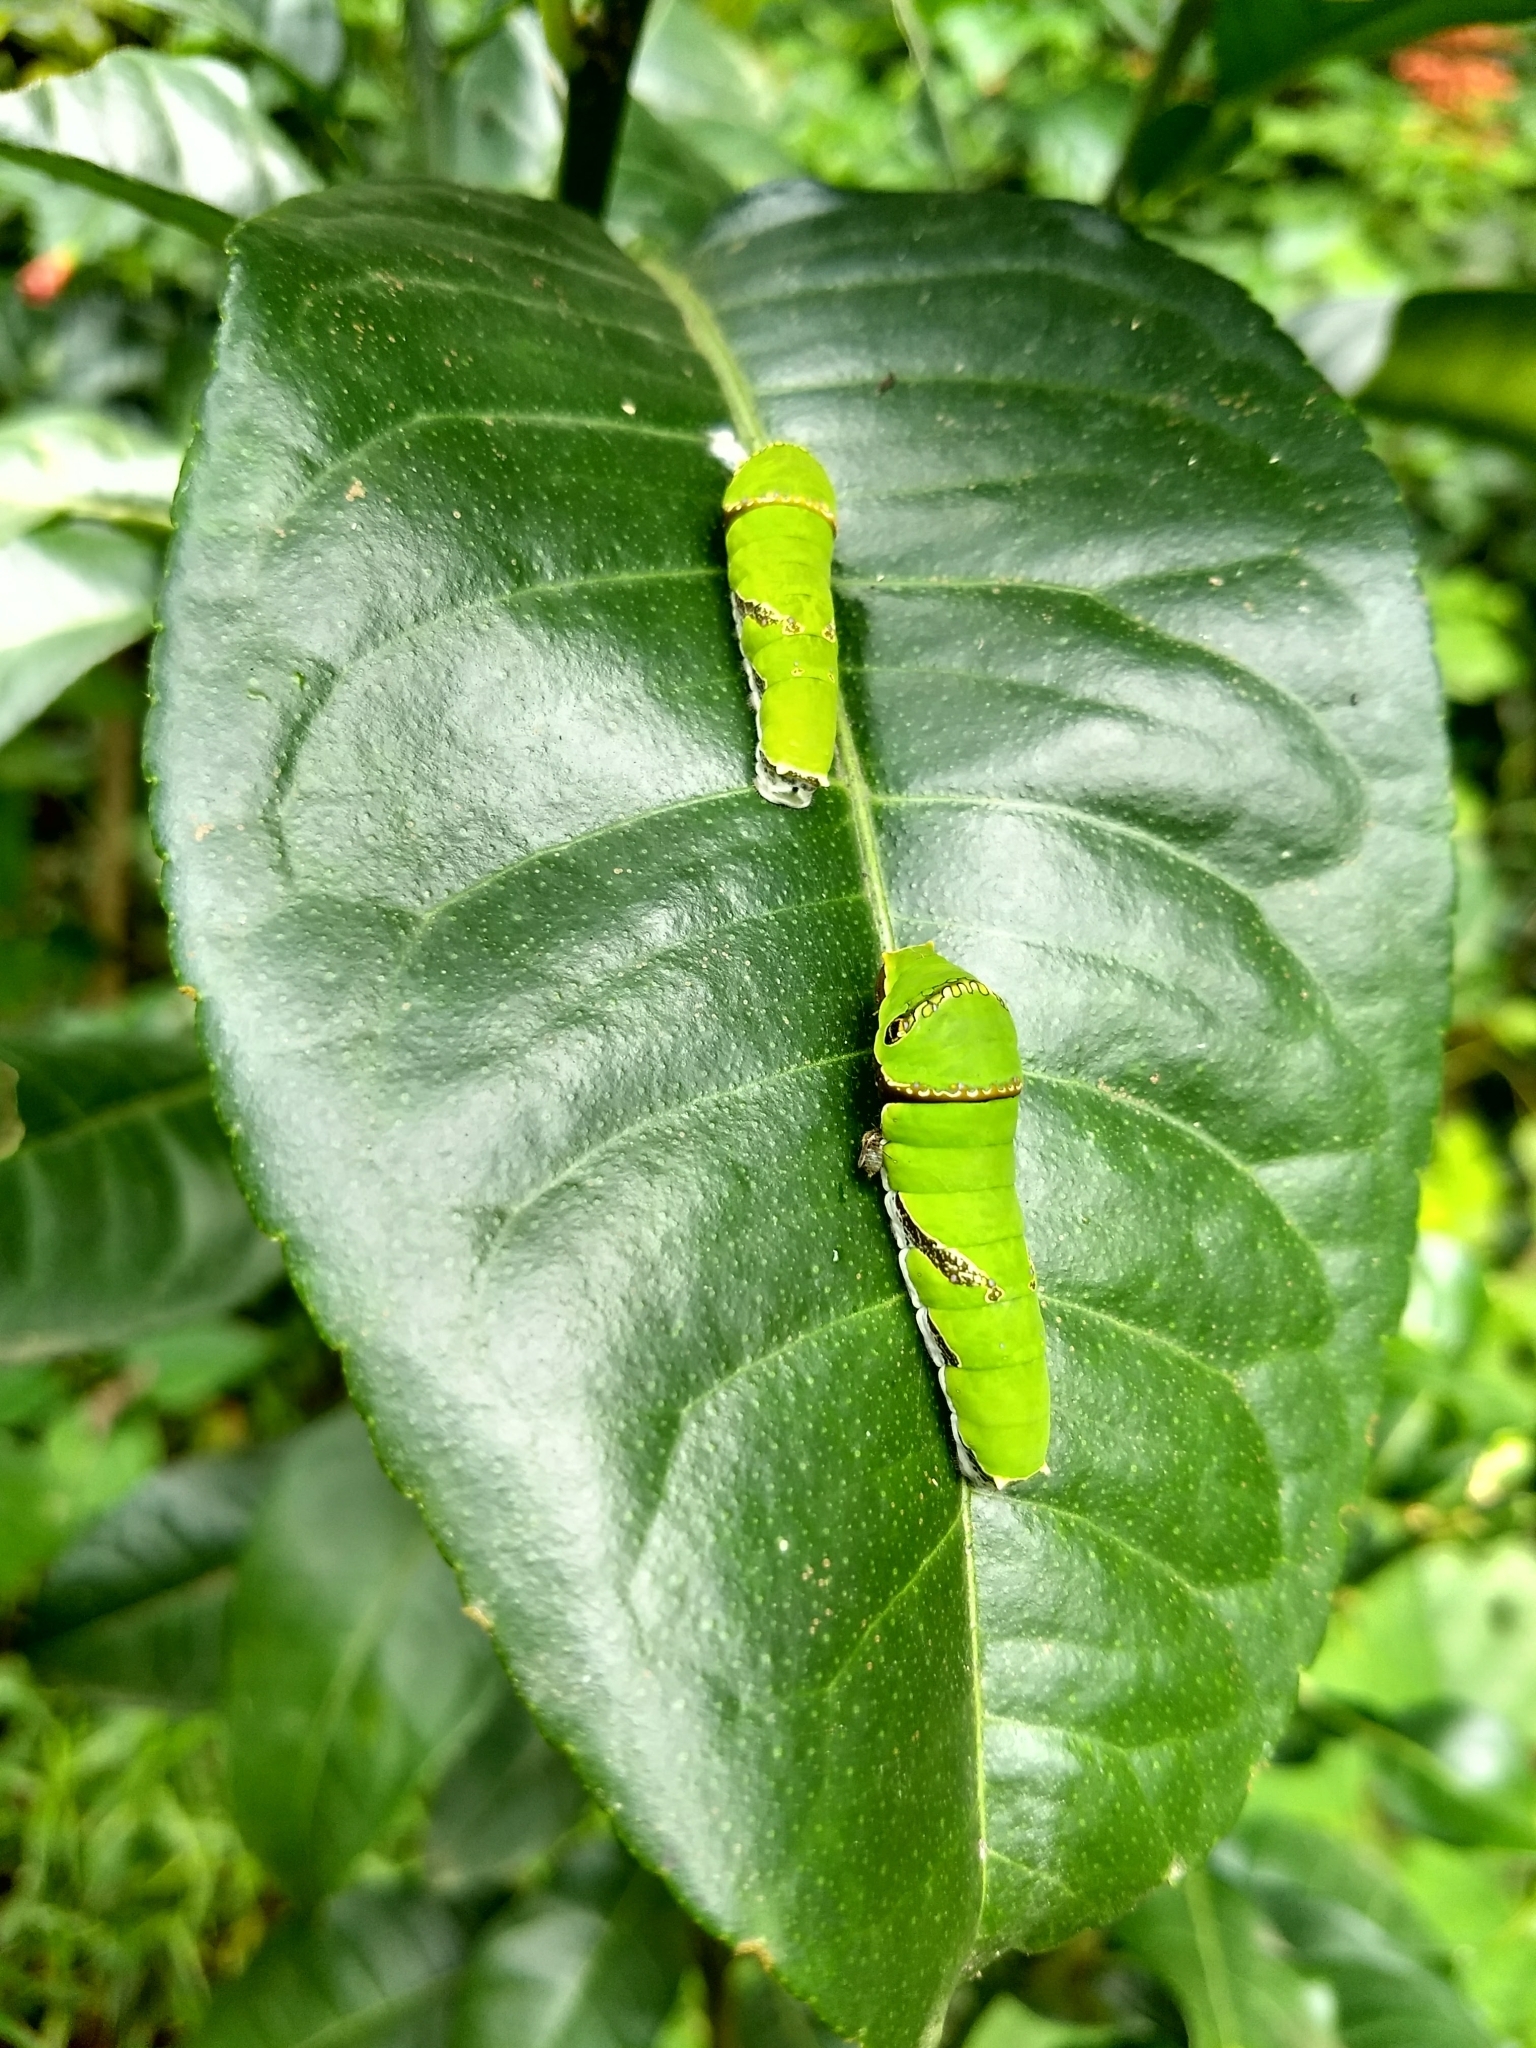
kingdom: Animalia
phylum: Arthropoda
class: Insecta
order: Lepidoptera
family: Papilionidae
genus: Papilio
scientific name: Papilio polytes
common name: Common mormon
